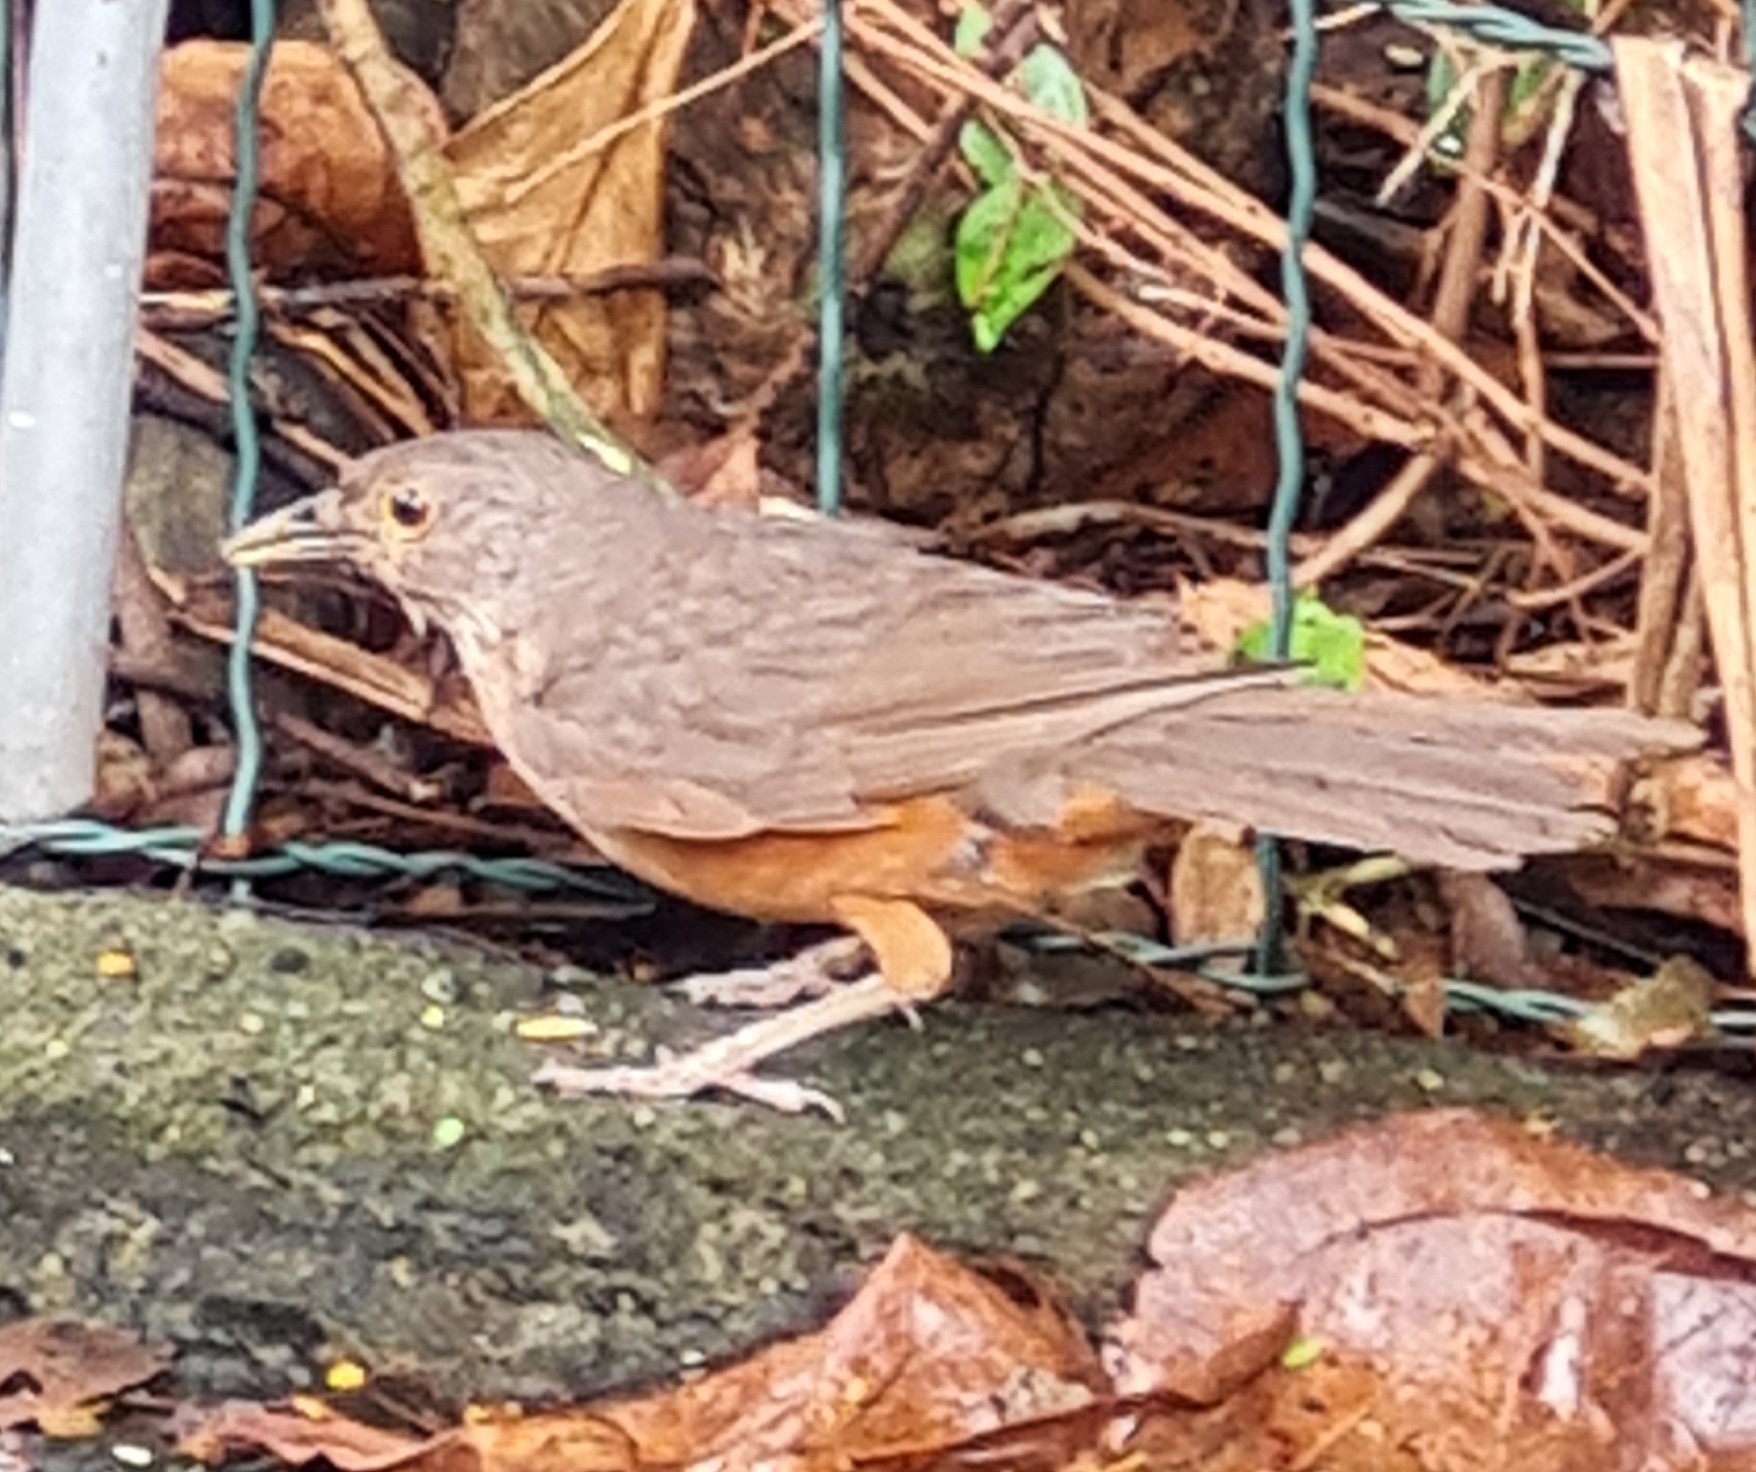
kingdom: Animalia
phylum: Chordata
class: Aves
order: Passeriformes
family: Turdidae
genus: Turdus
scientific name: Turdus rufiventris
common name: Rufous-bellied thrush
